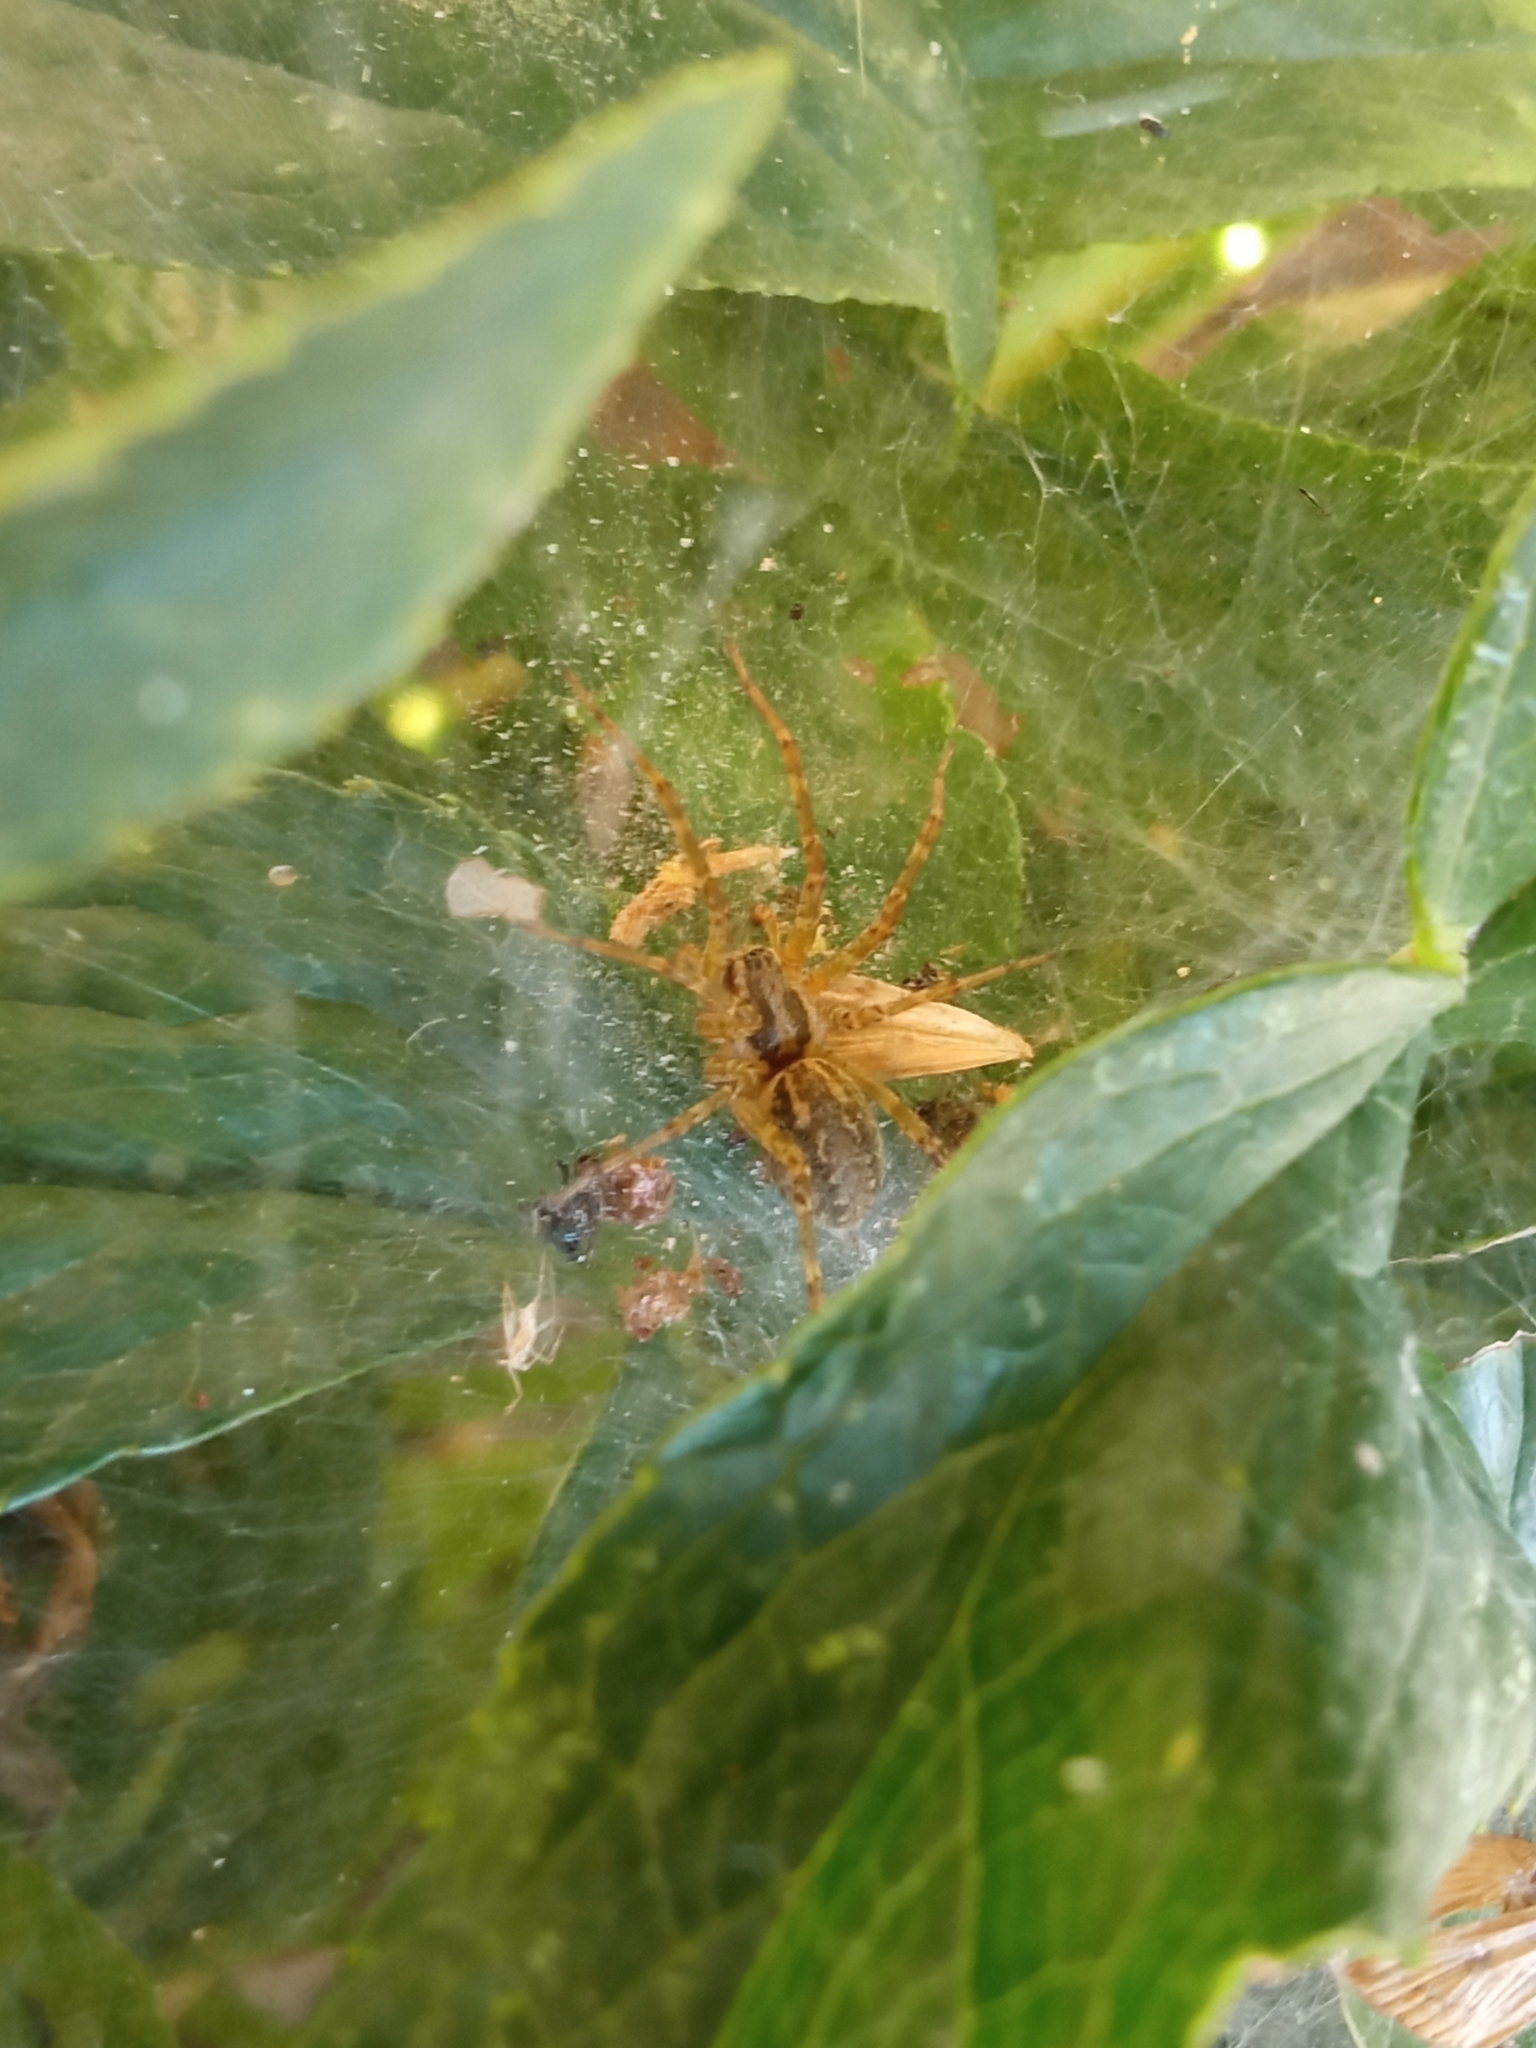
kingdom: Animalia
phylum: Arthropoda
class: Arachnida
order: Araneae
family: Agelenidae
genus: Allagelena
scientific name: Allagelena gracilens
